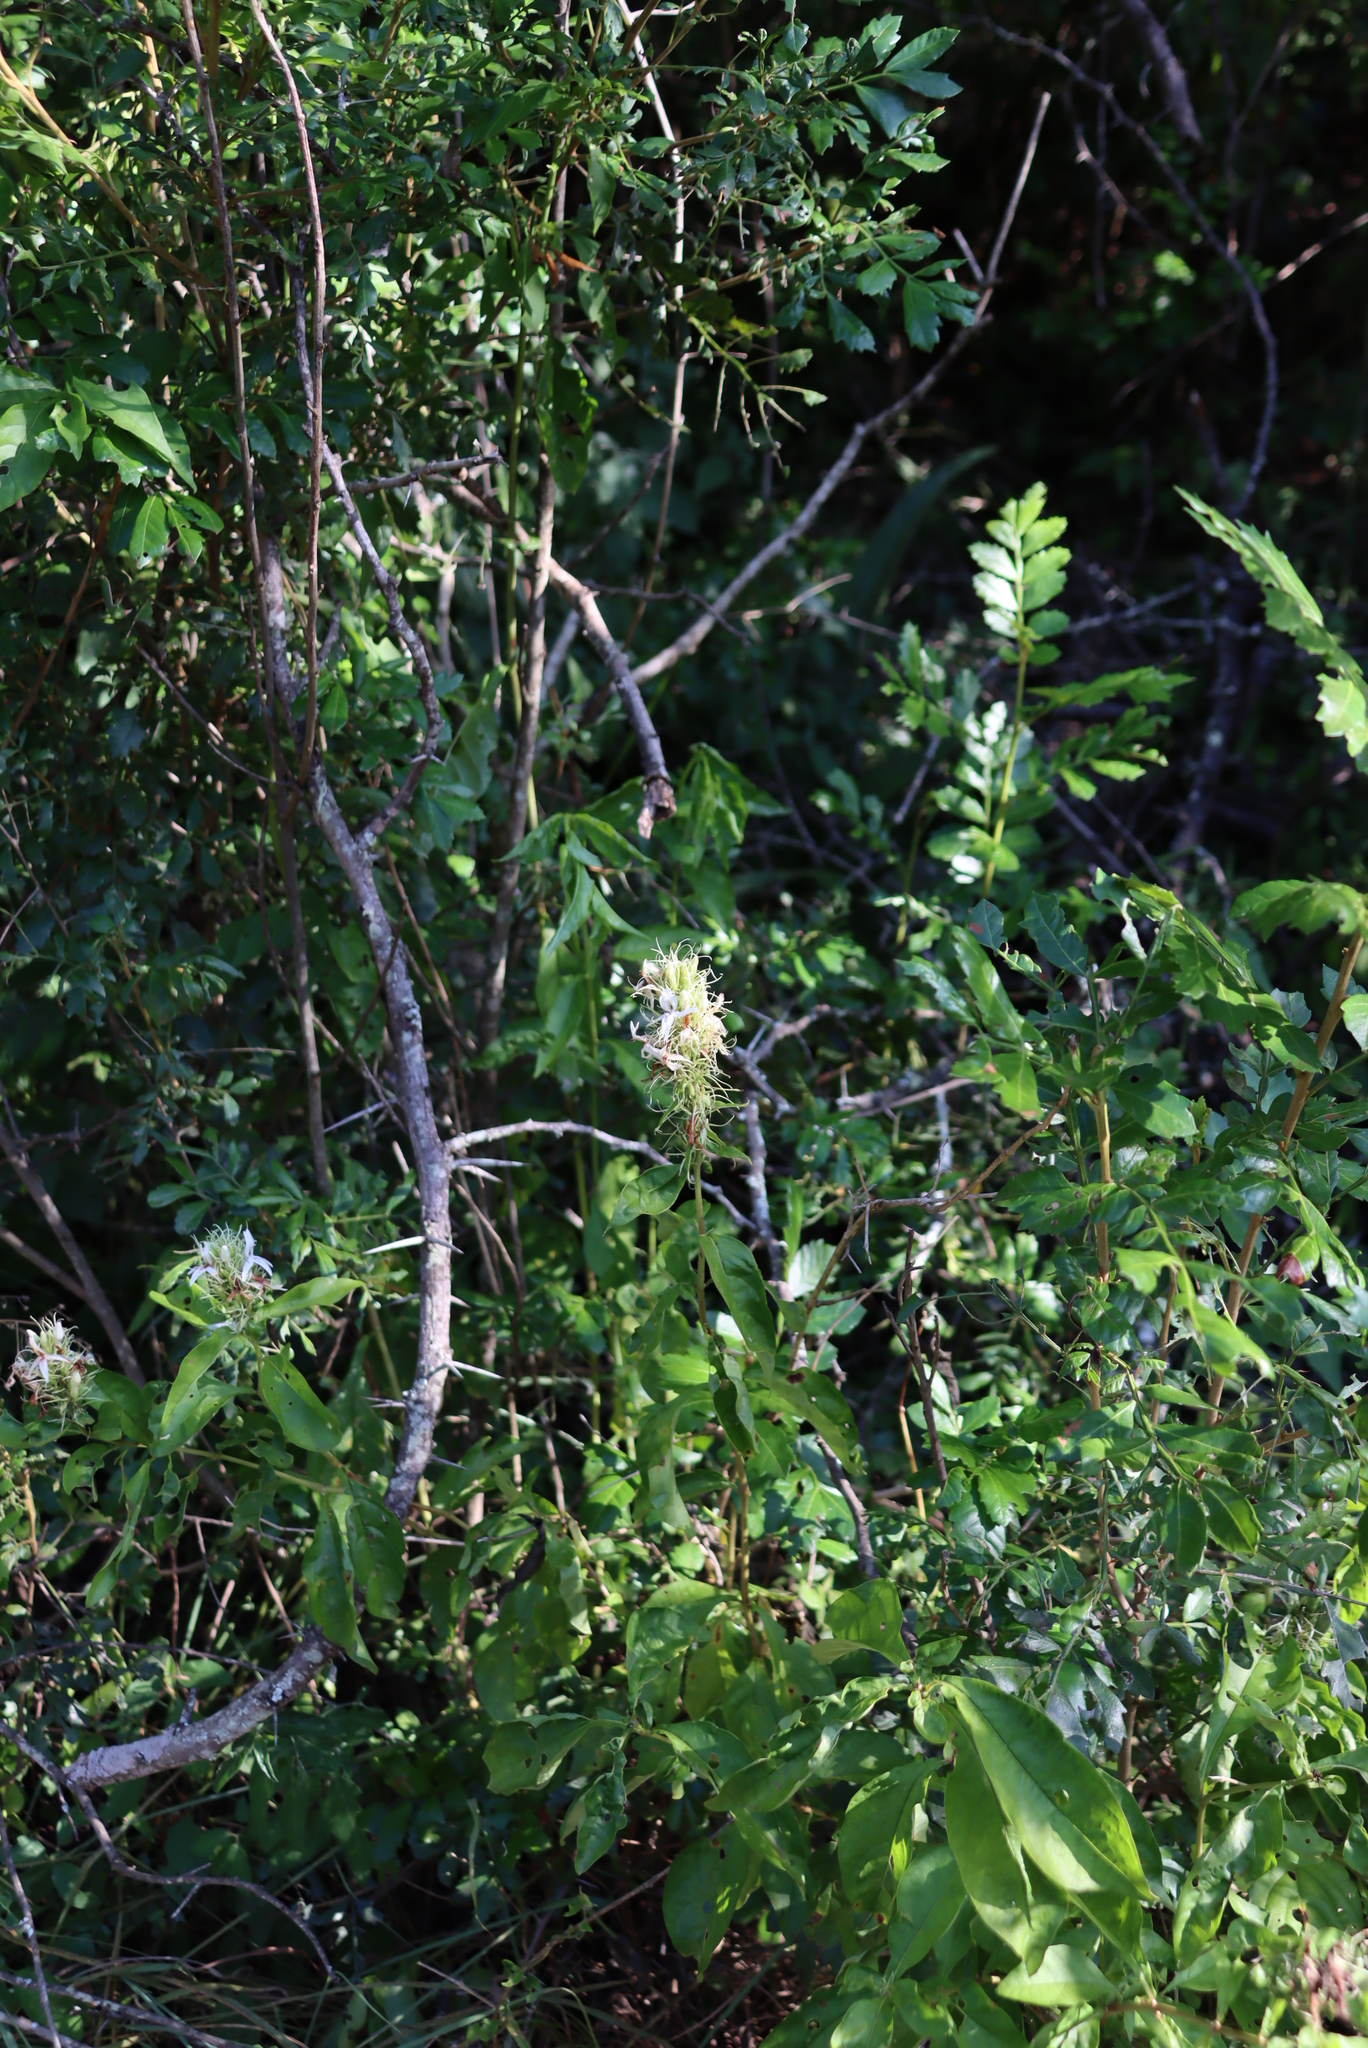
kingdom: Plantae
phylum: Tracheophyta
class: Magnoliopsida
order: Lamiales
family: Acanthaceae
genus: Ruttya
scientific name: Ruttya ovata
